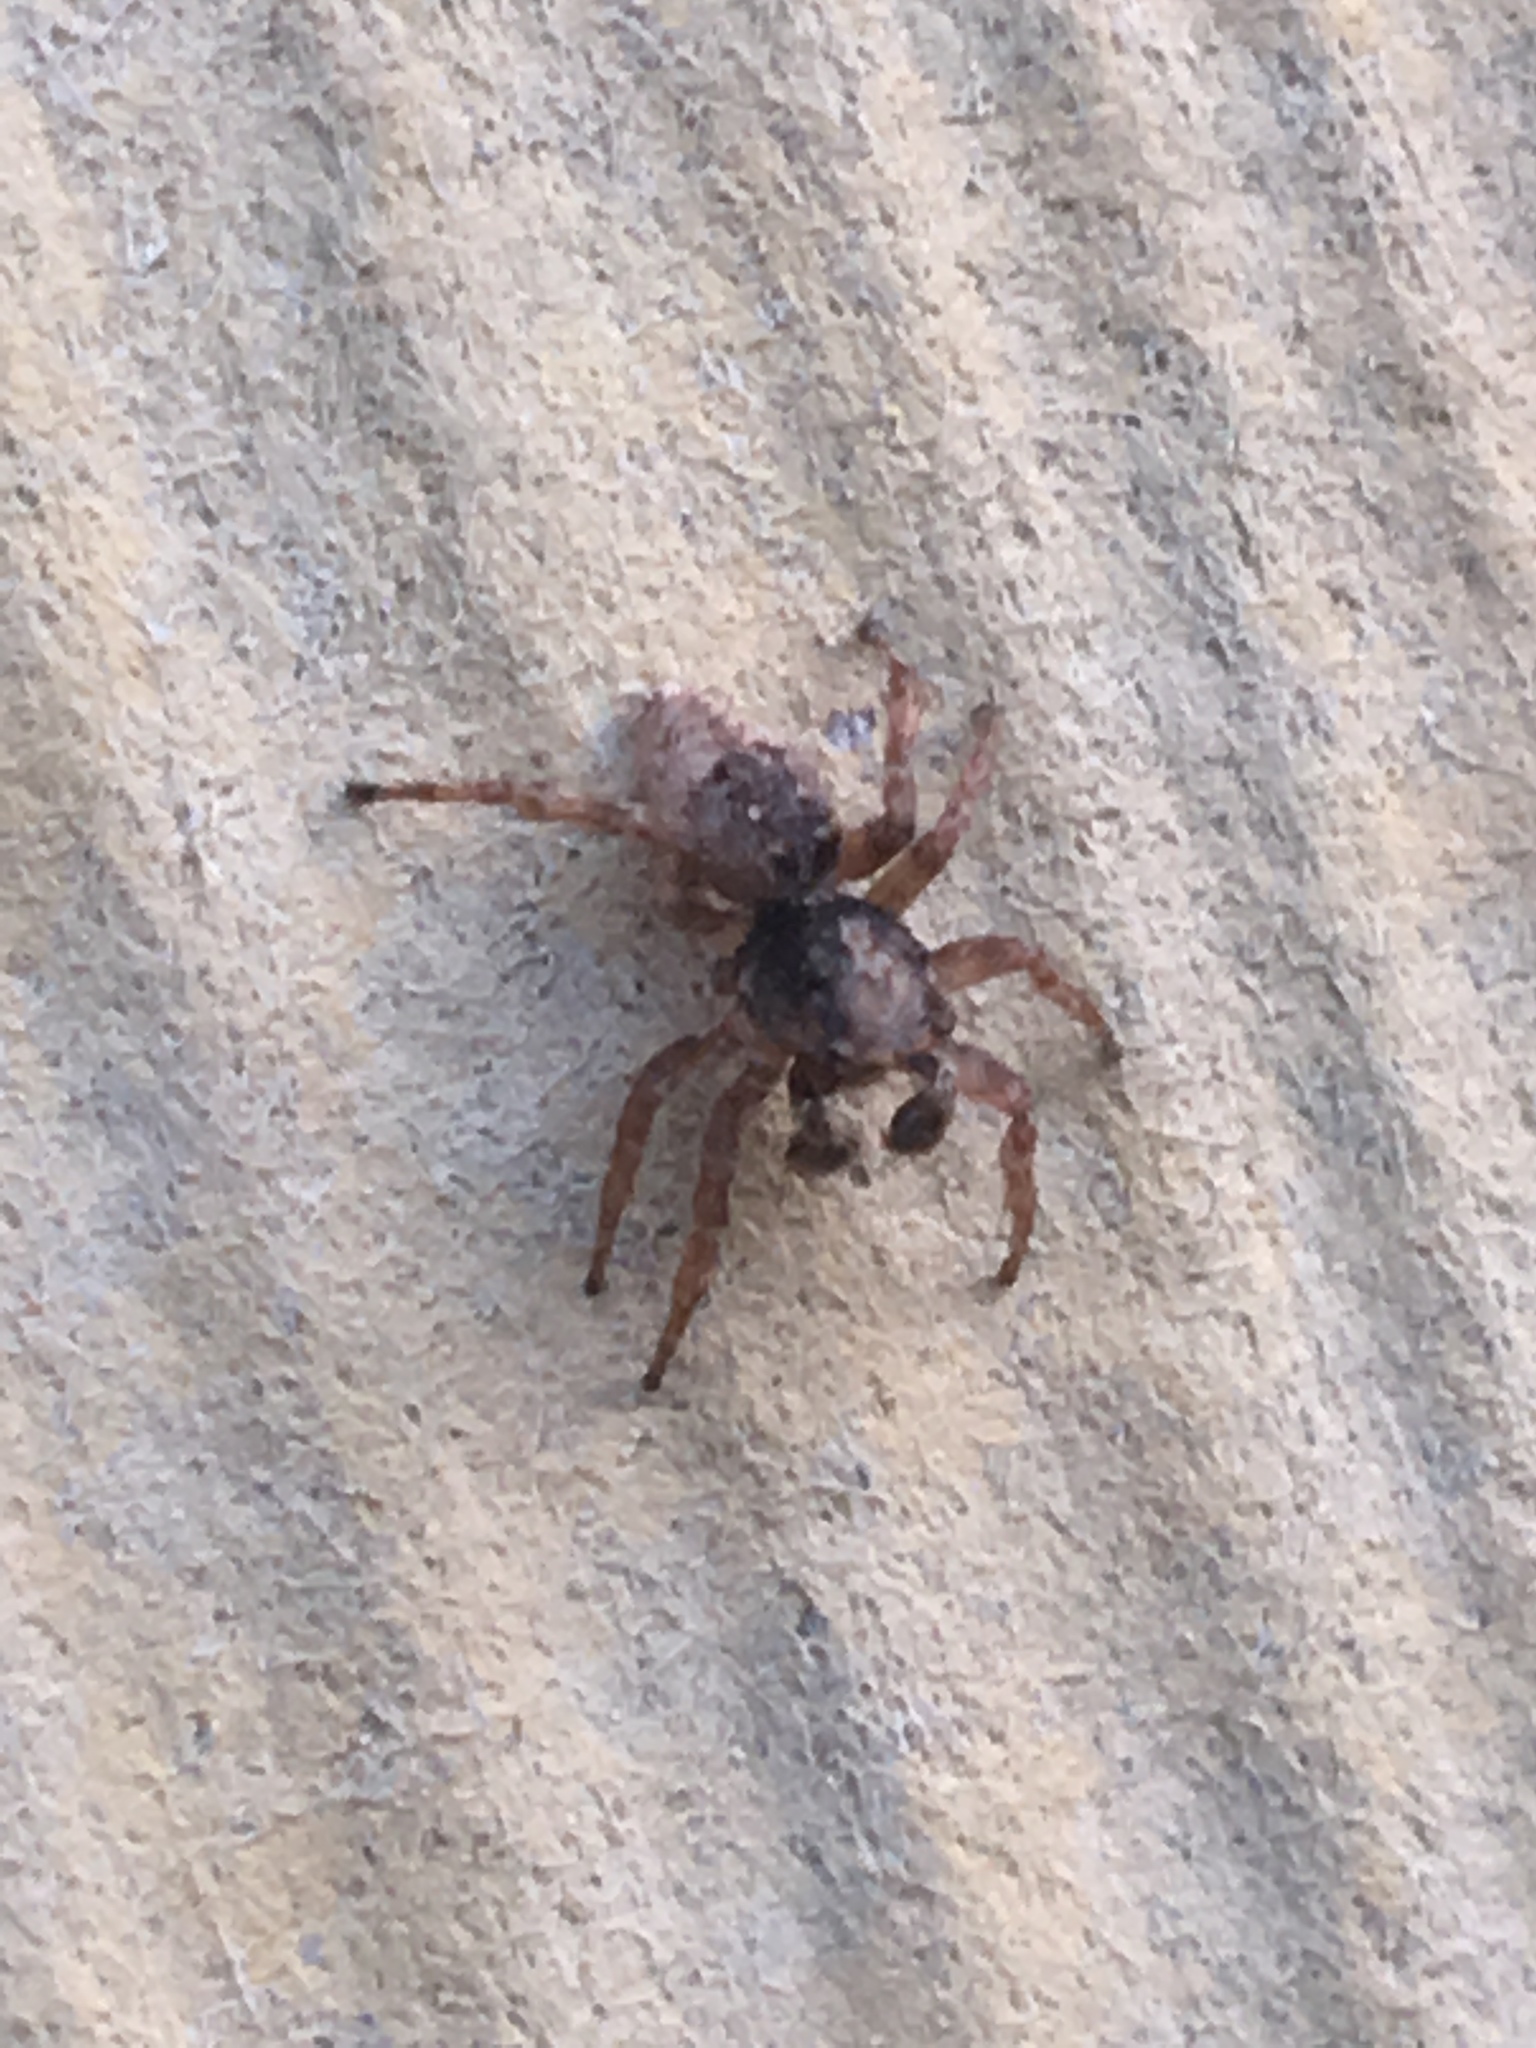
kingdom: Animalia
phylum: Arthropoda
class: Arachnida
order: Araneae
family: Salticidae
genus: Attulus
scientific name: Attulus fasciger
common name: Asiatic wall jumping spider
